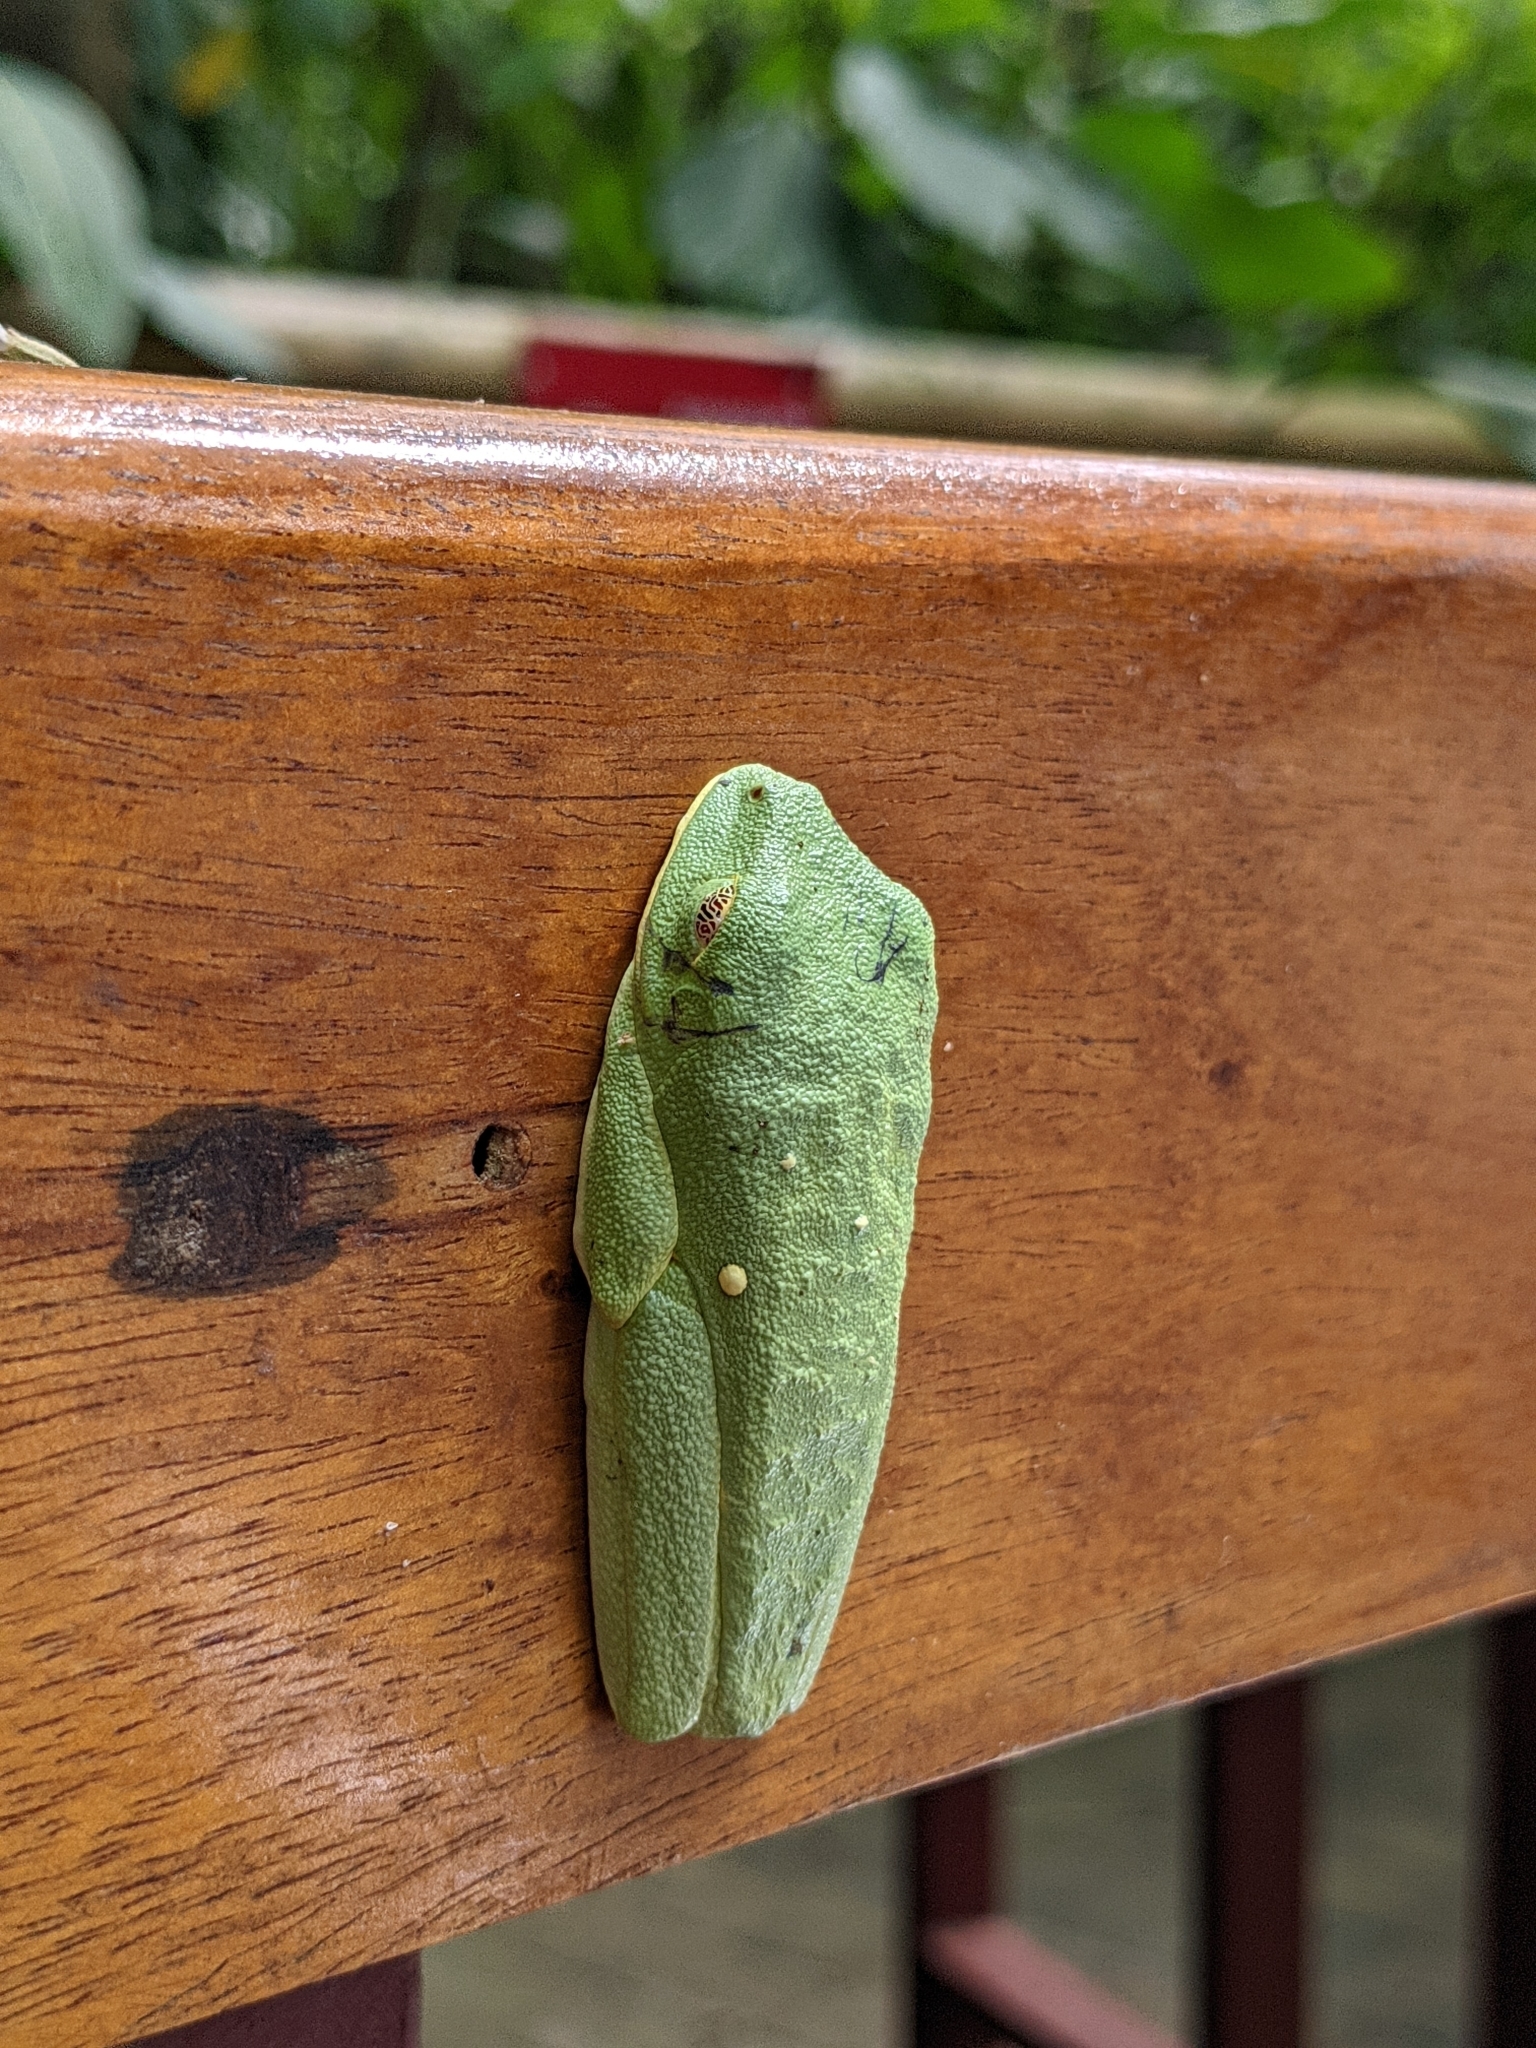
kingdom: Animalia
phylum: Chordata
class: Amphibia
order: Anura
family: Phyllomedusidae
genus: Agalychnis
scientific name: Agalychnis callidryas
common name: Red-eyed treefrog
